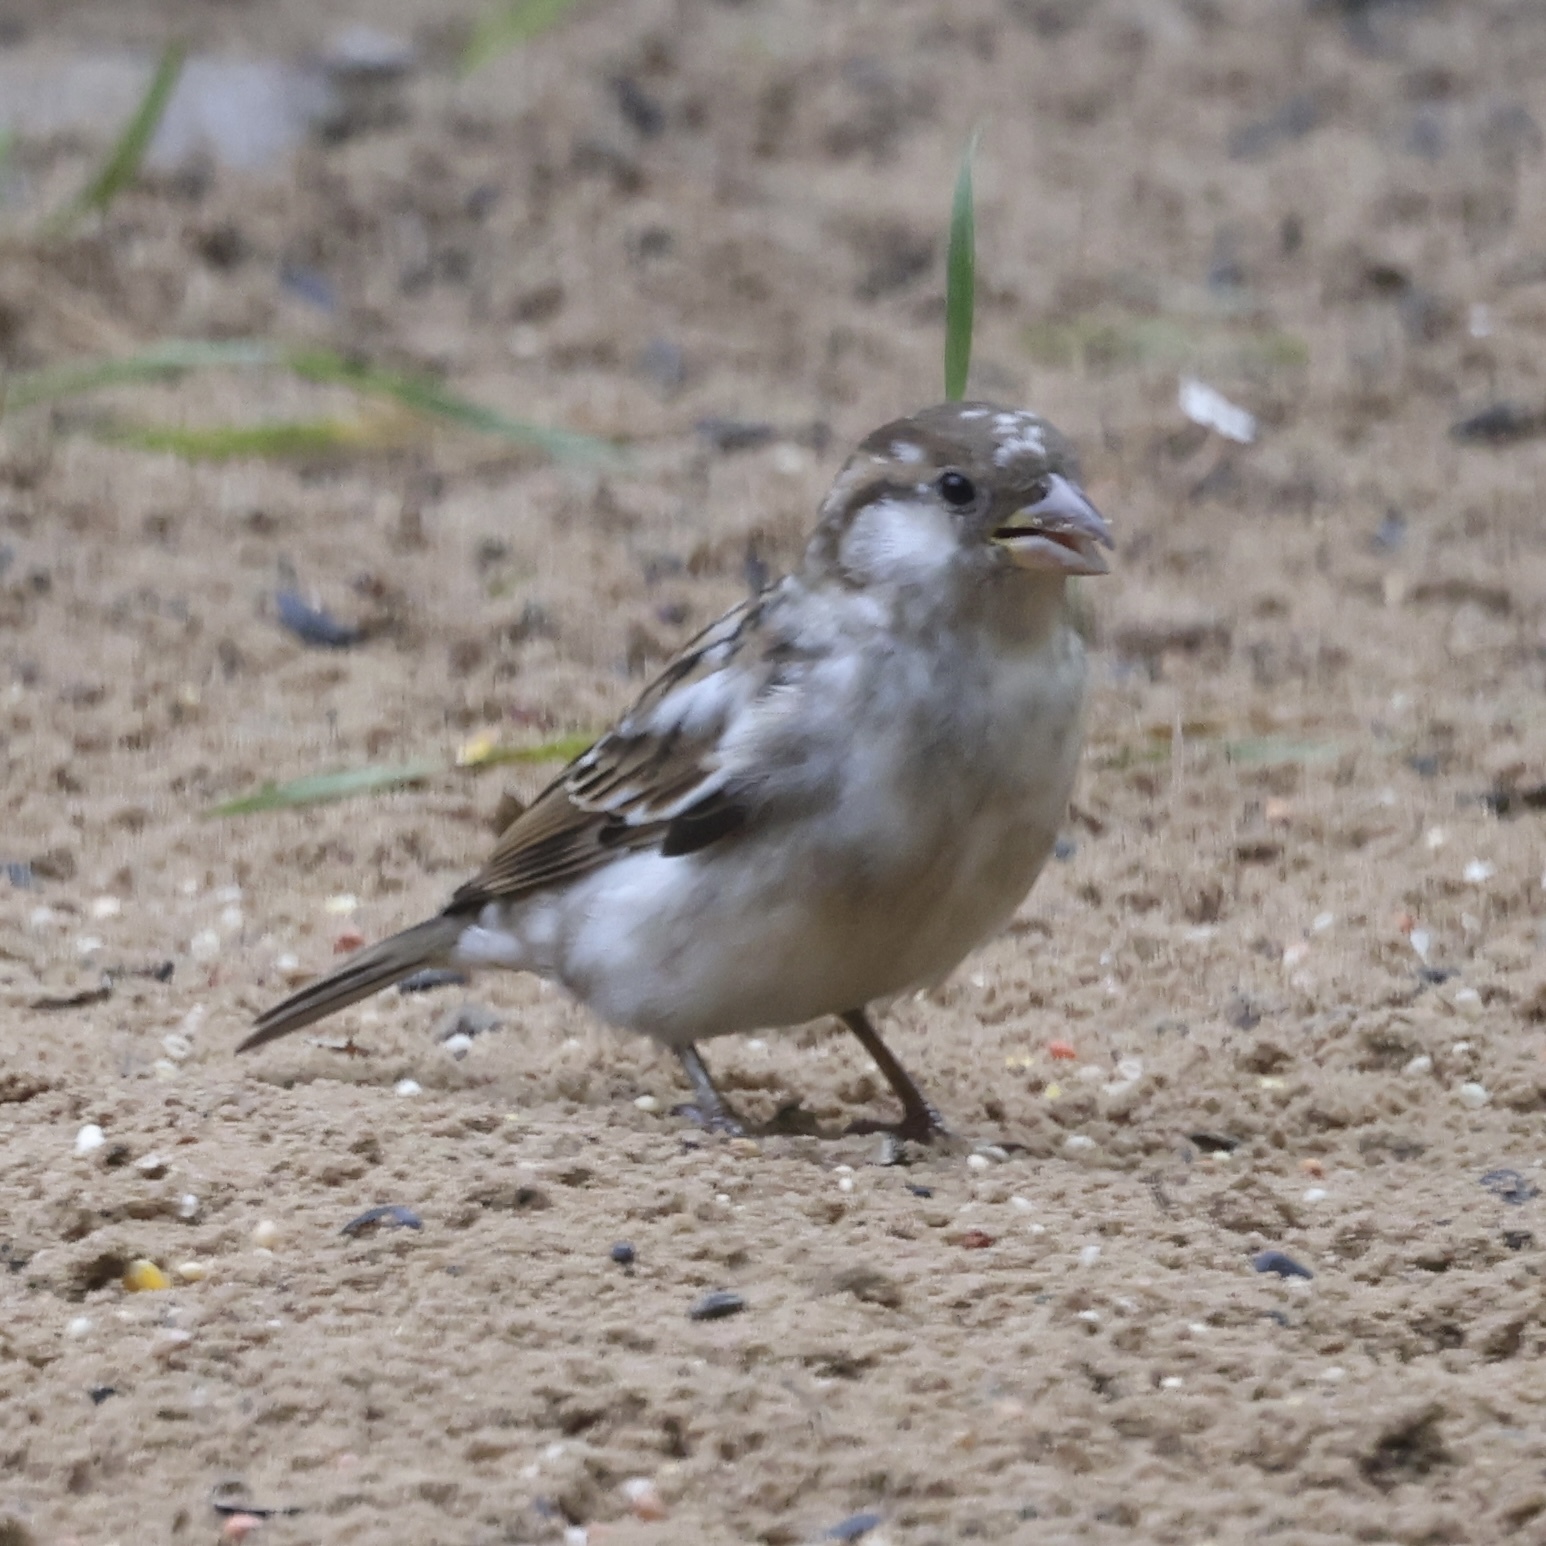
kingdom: Animalia
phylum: Chordata
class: Aves
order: Passeriformes
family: Passeridae
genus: Passer
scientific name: Passer domesticus
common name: House sparrow
